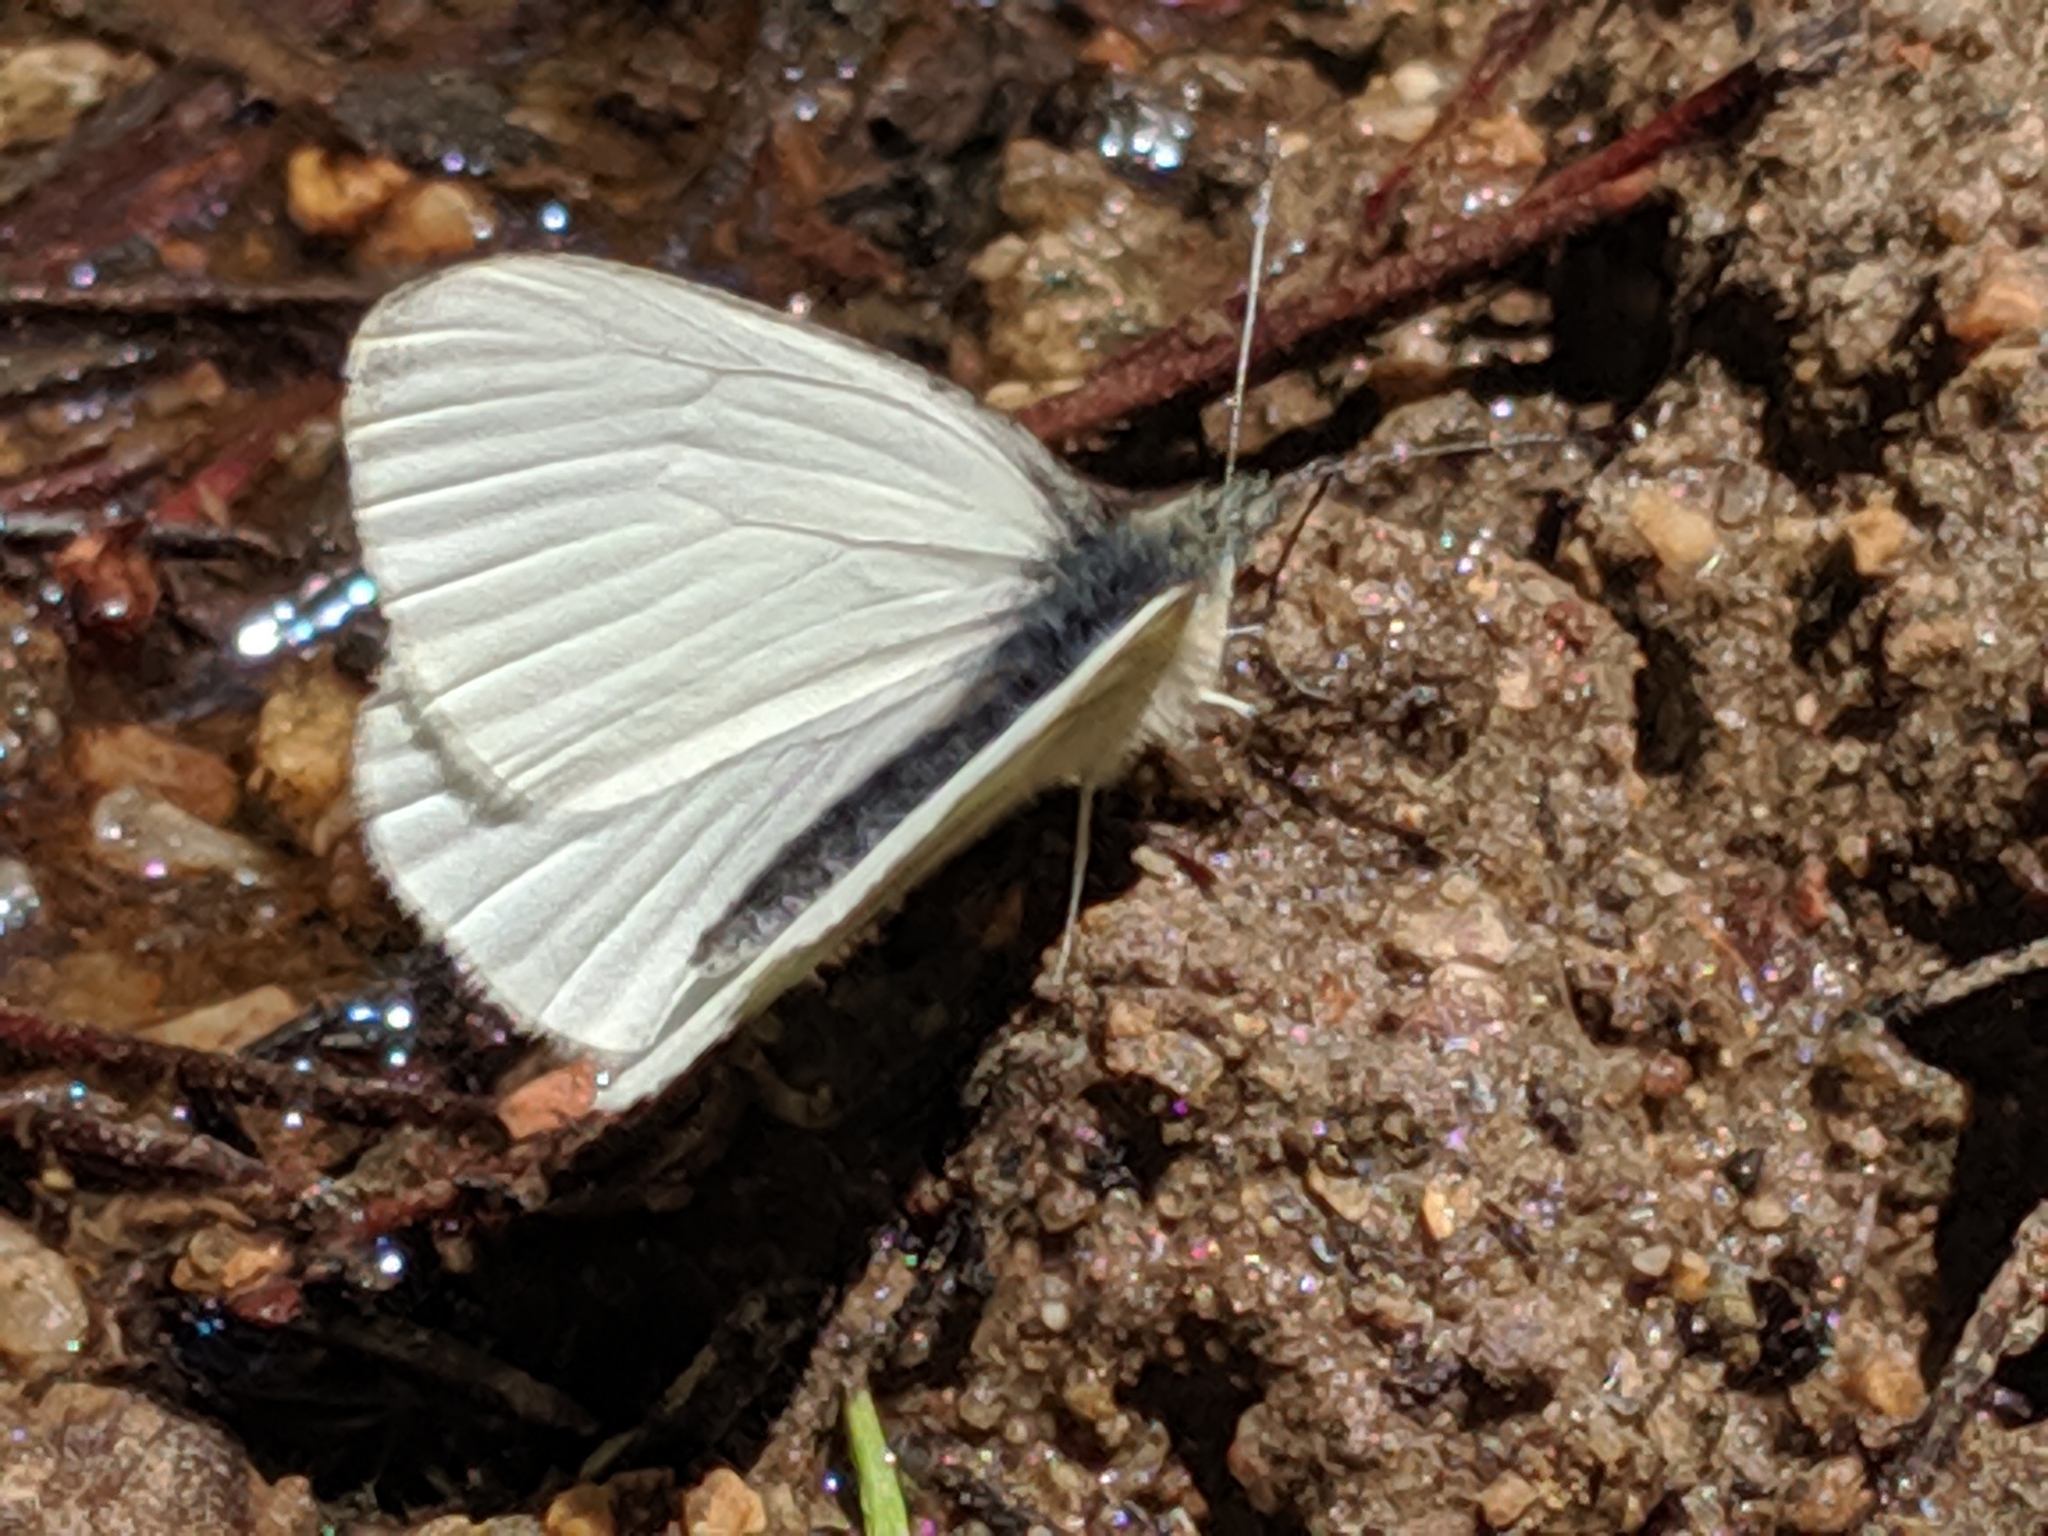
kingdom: Animalia
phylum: Arthropoda
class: Insecta
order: Lepidoptera
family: Pieridae
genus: Pieris
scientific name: Pieris marginalis
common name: Margined white
